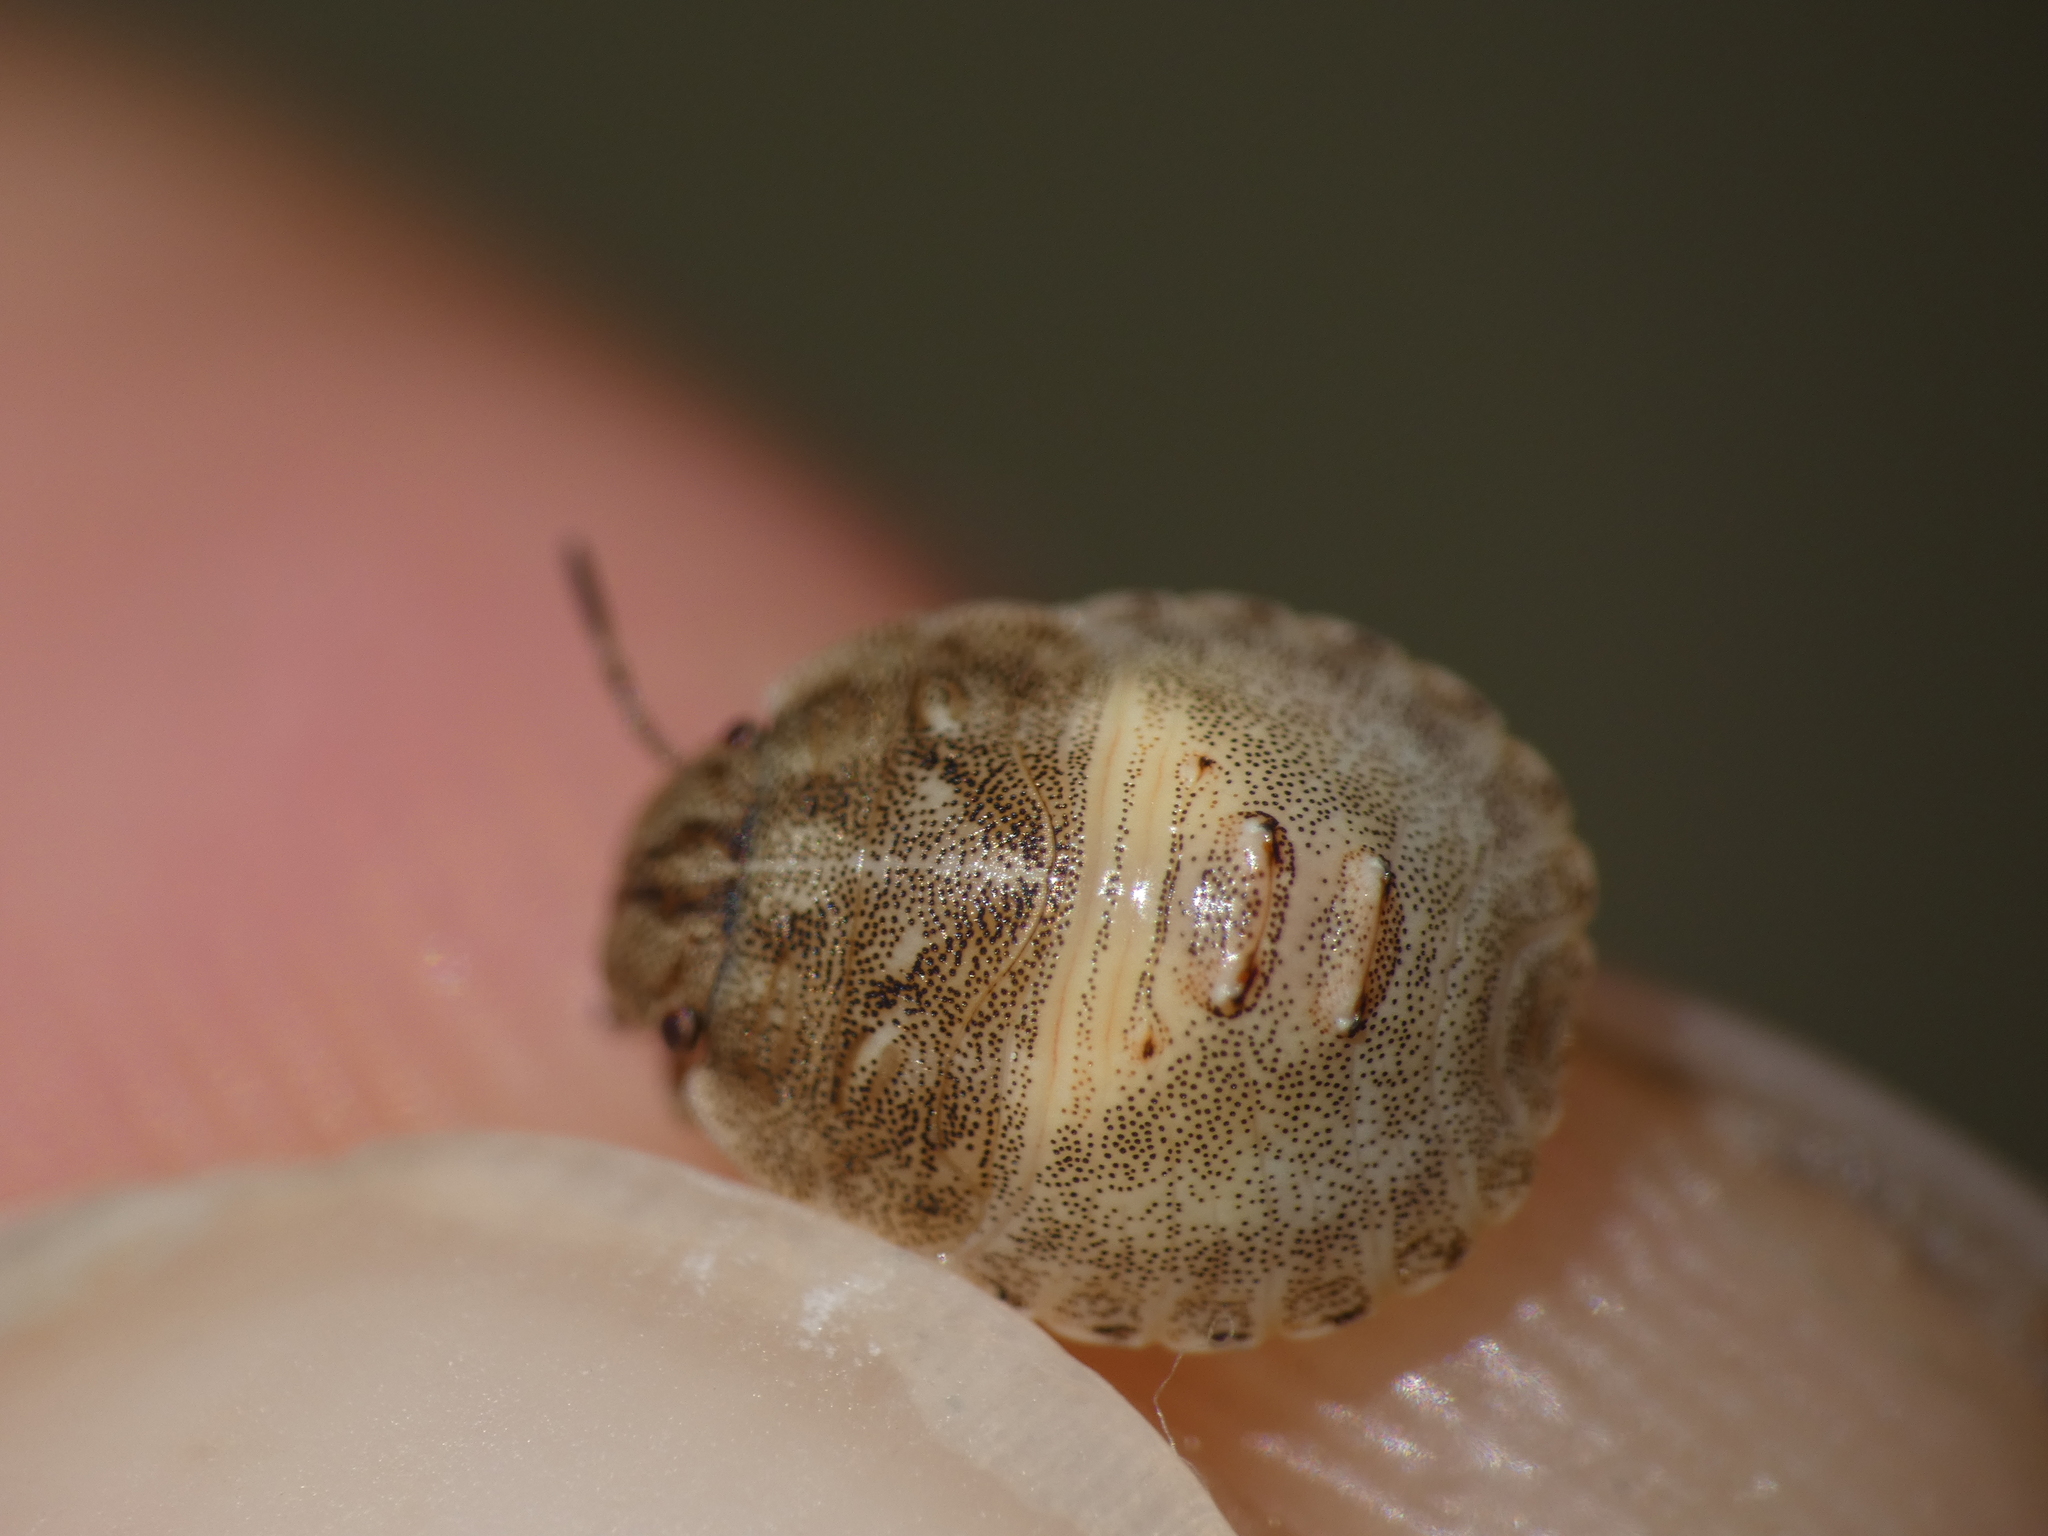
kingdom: Animalia
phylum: Arthropoda
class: Insecta
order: Hemiptera
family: Scutelleridae
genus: Eurygaster
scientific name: Eurygaster maura
